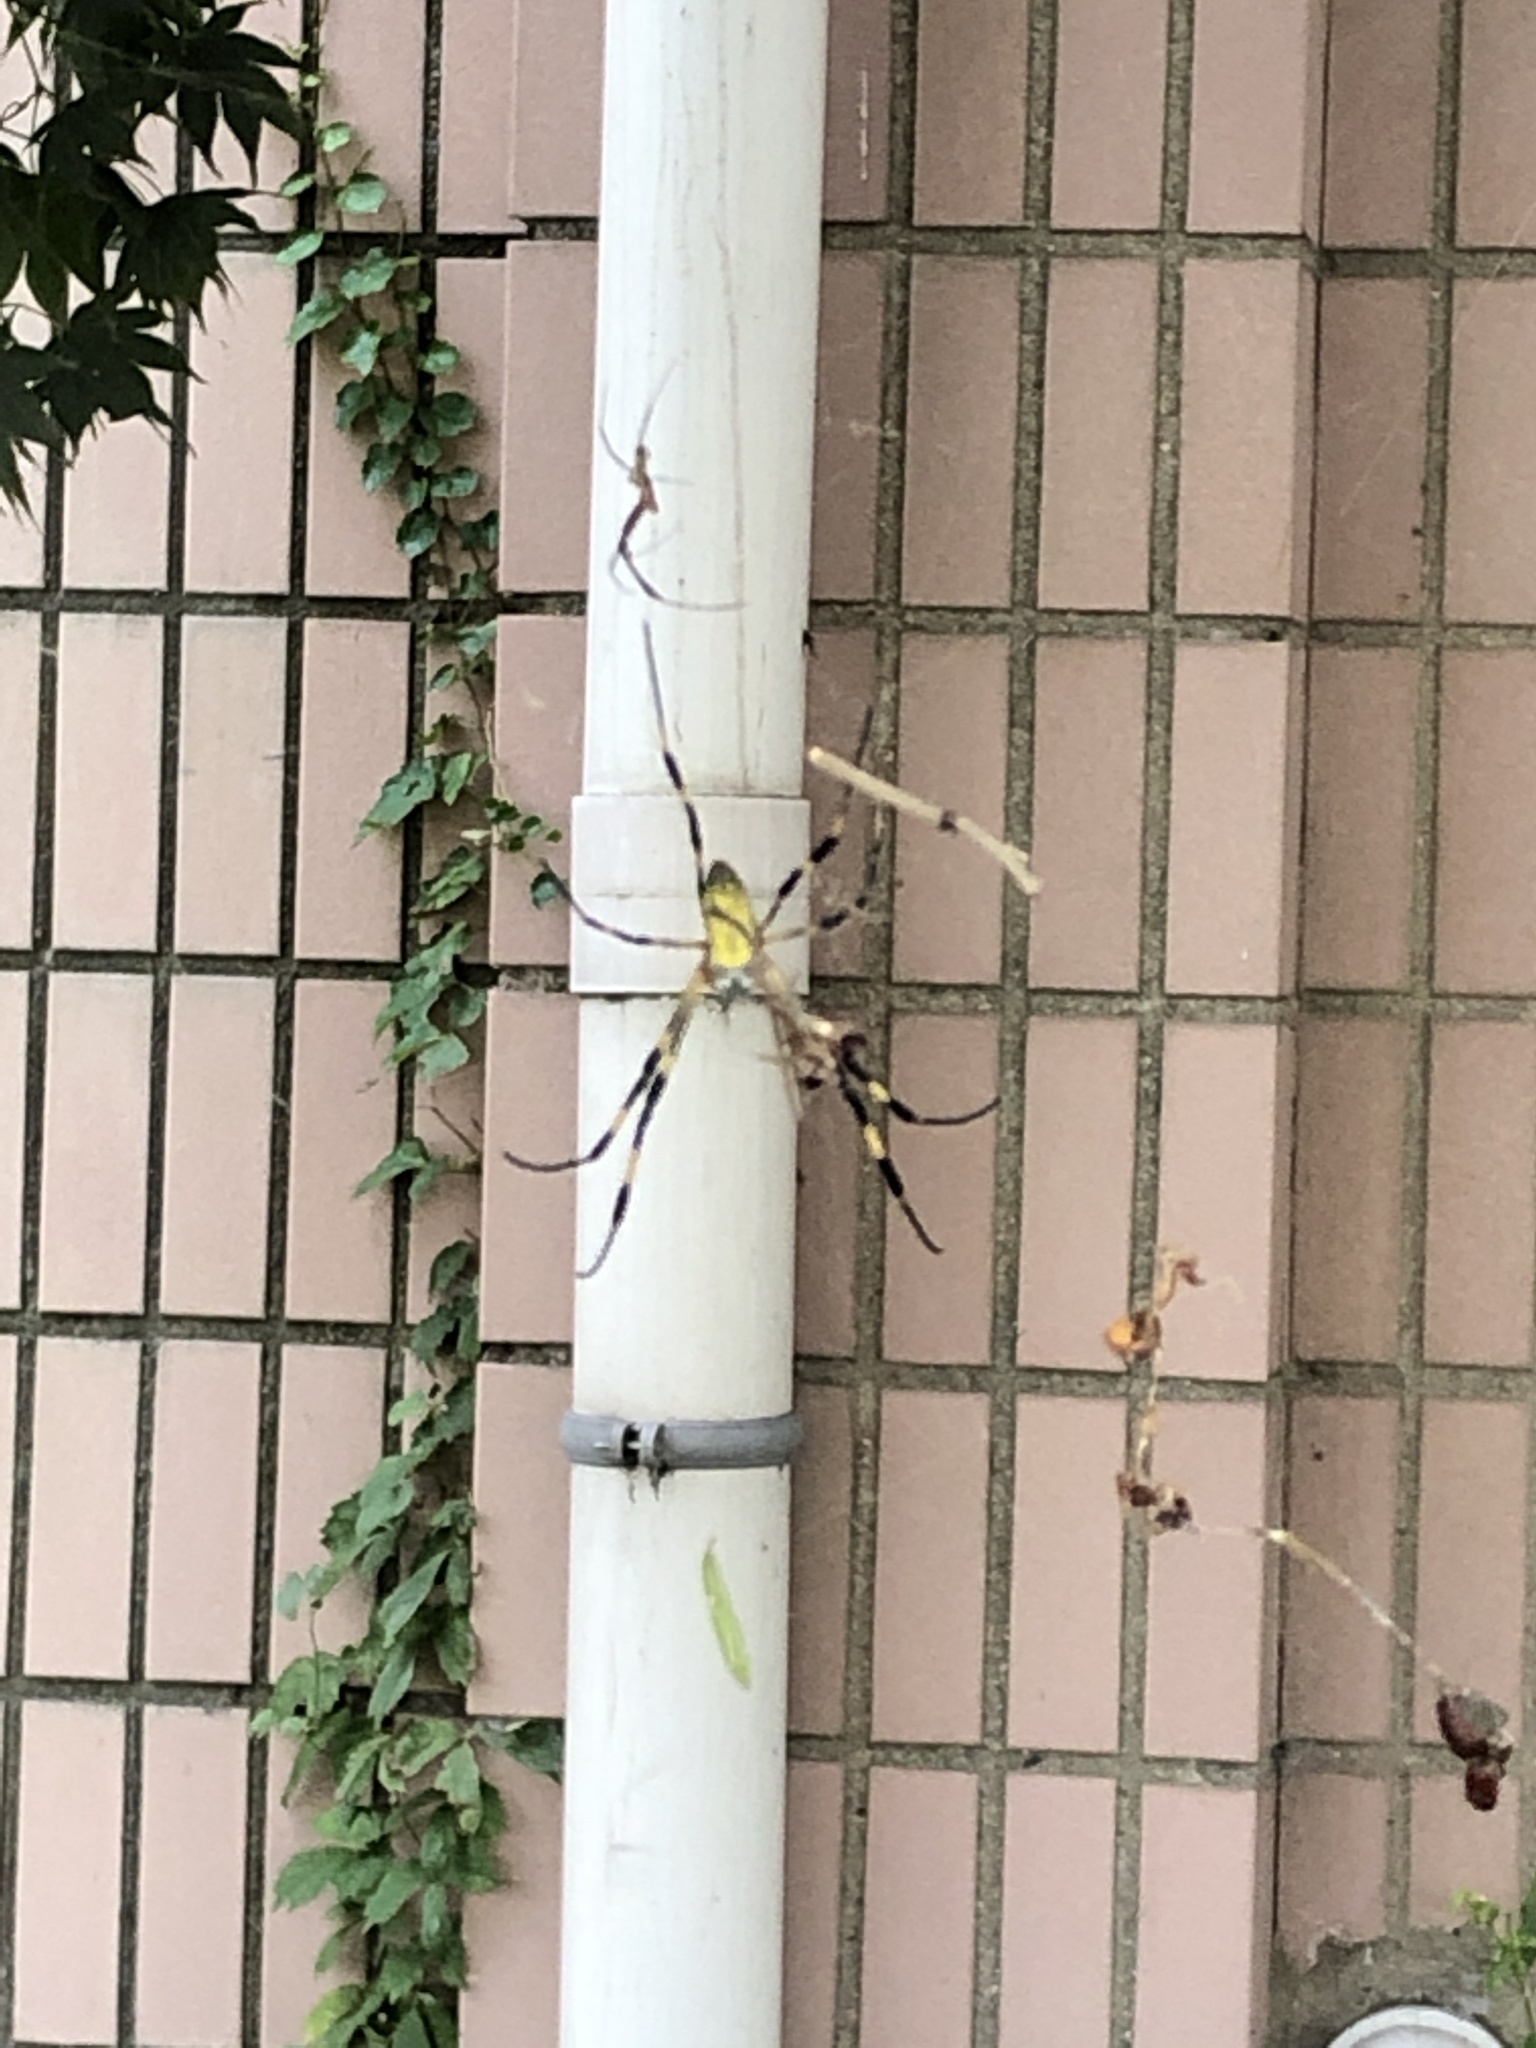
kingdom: Animalia
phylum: Arthropoda
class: Arachnida
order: Araneae
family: Araneidae
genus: Trichonephila
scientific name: Trichonephila clavata
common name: Jorō spider
